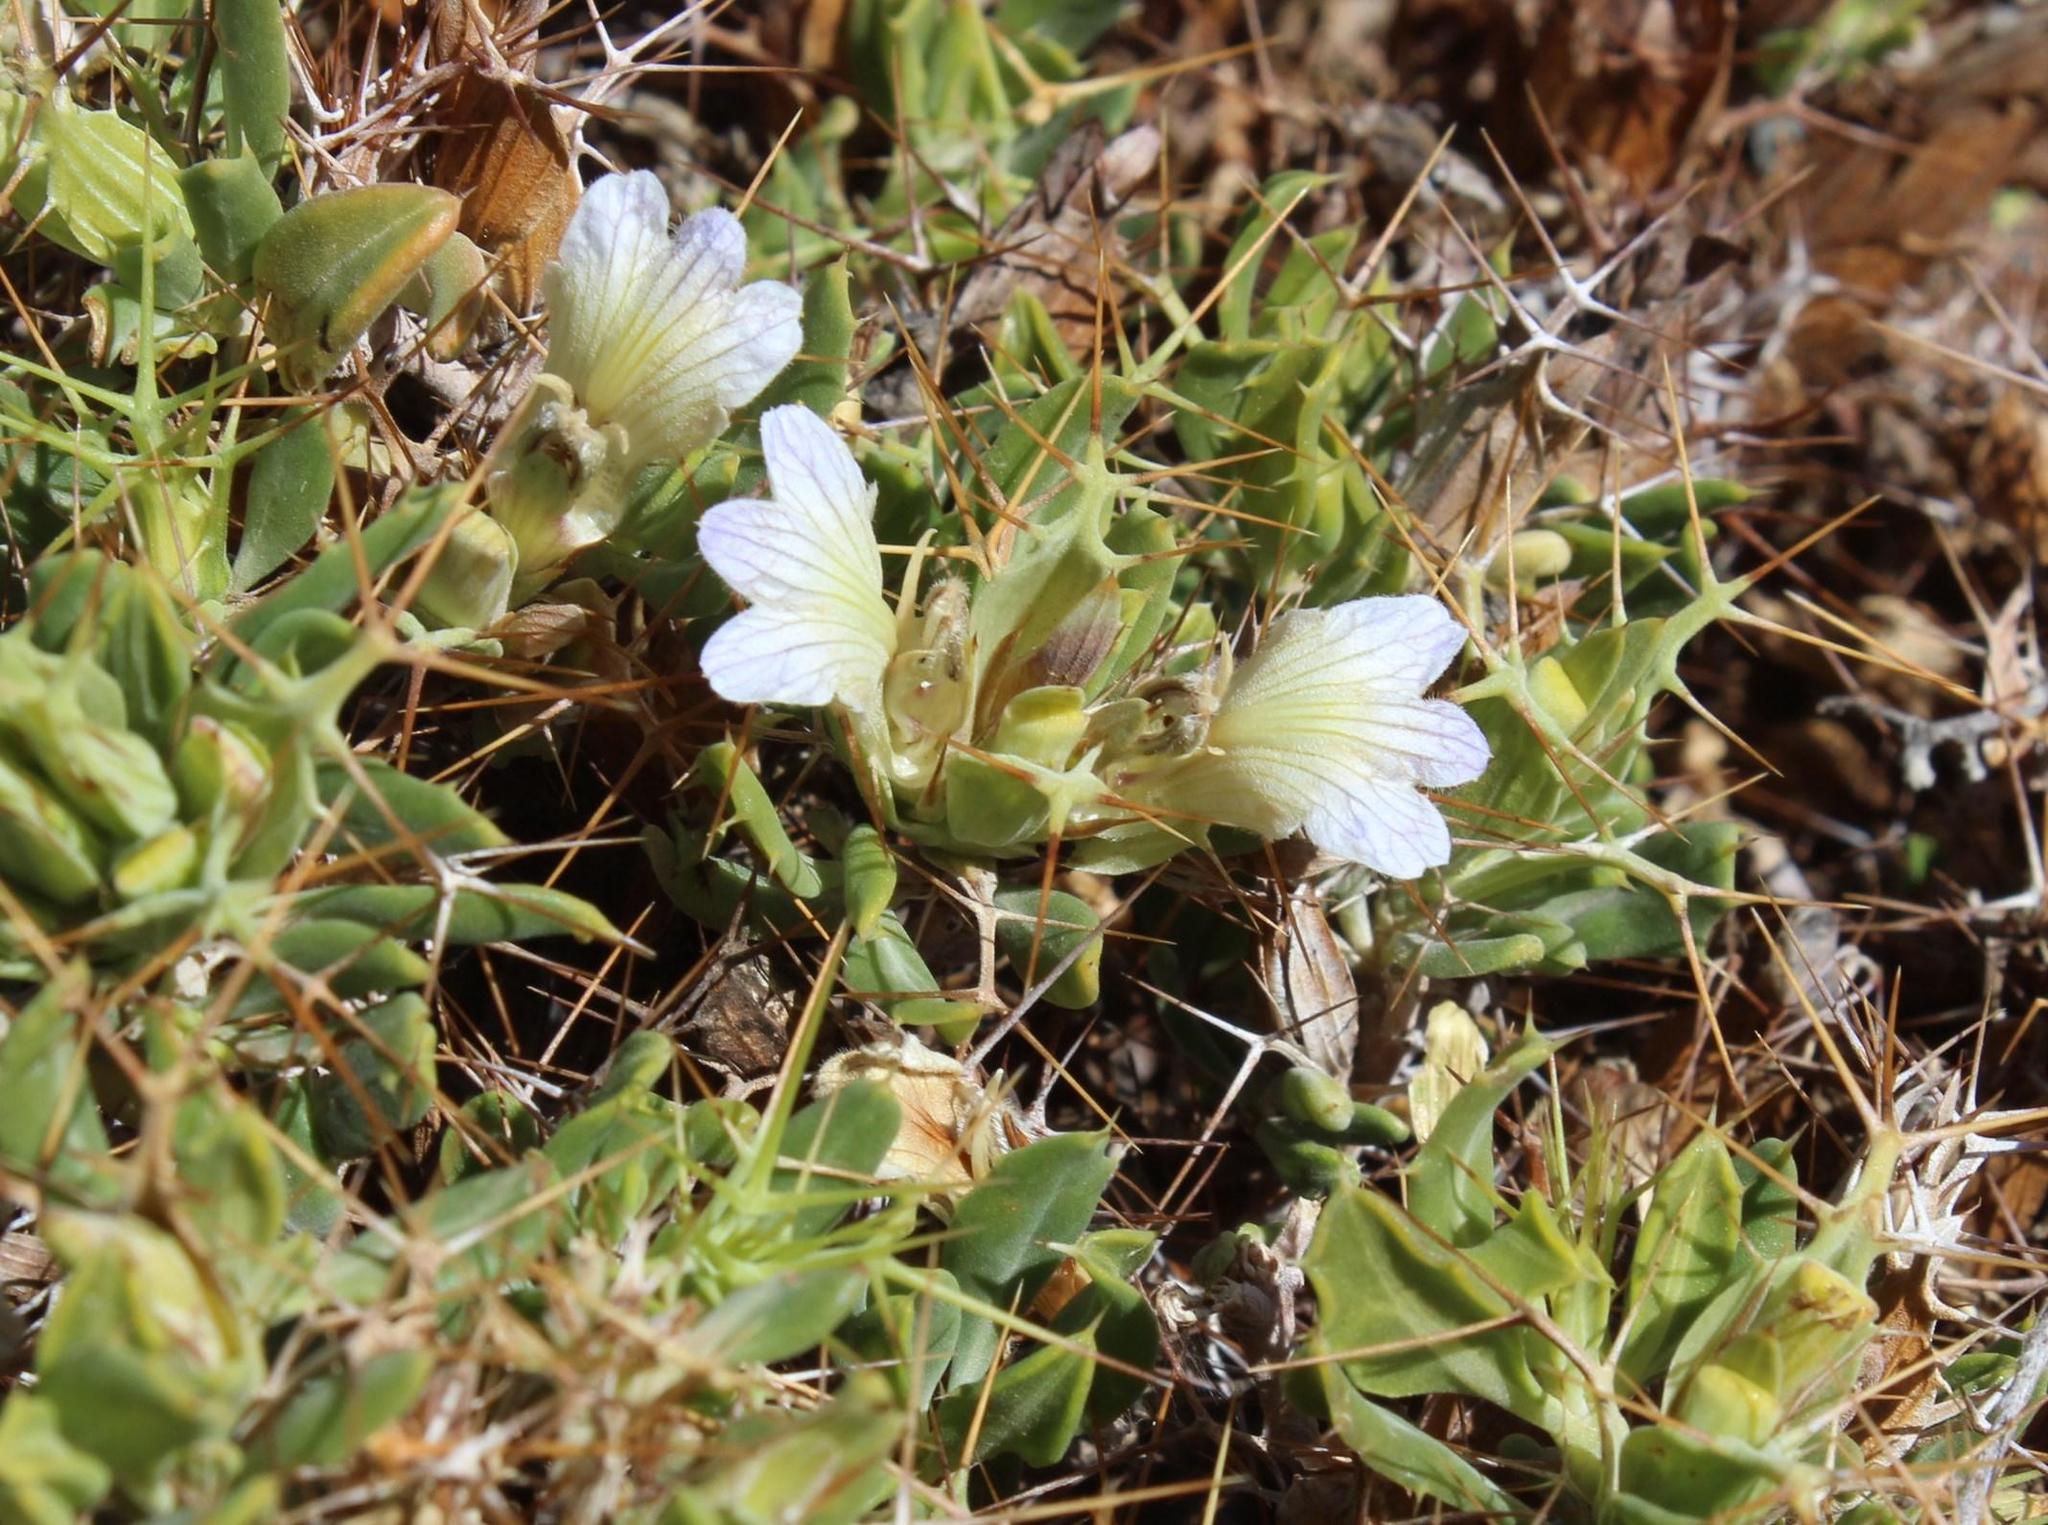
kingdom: Plantae
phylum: Tracheophyta
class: Magnoliopsida
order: Lamiales
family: Acanthaceae
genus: Blepharis
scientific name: Blepharis furcata
